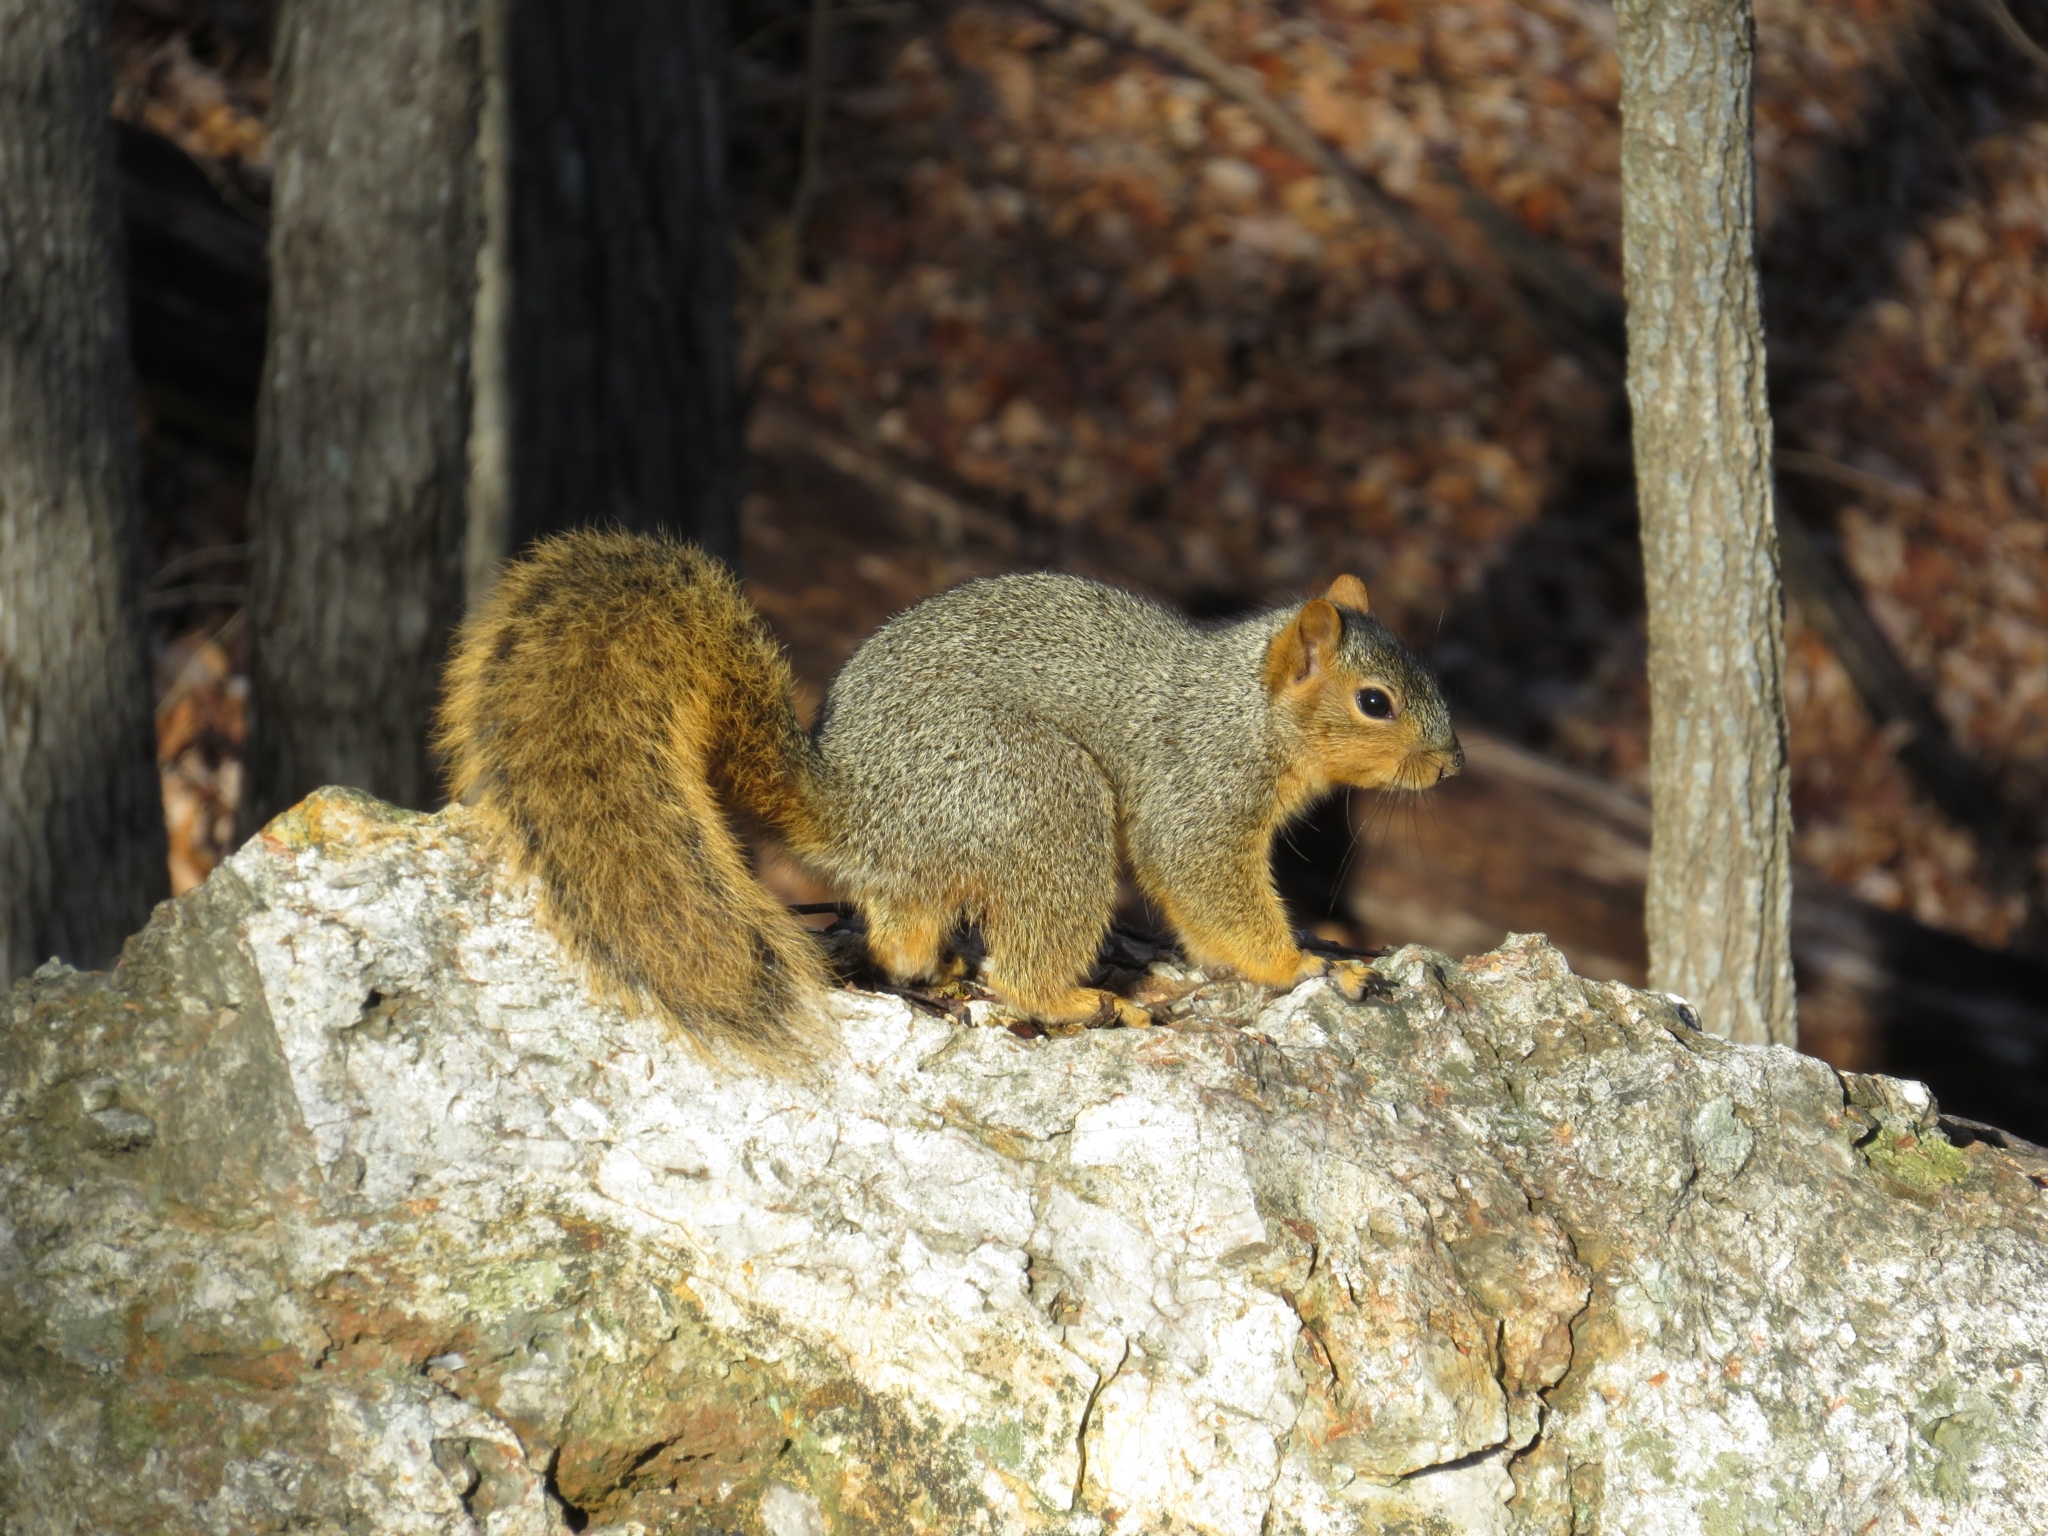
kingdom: Animalia
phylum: Chordata
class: Mammalia
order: Rodentia
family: Sciuridae
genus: Sciurus
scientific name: Sciurus niger
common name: Fox squirrel
